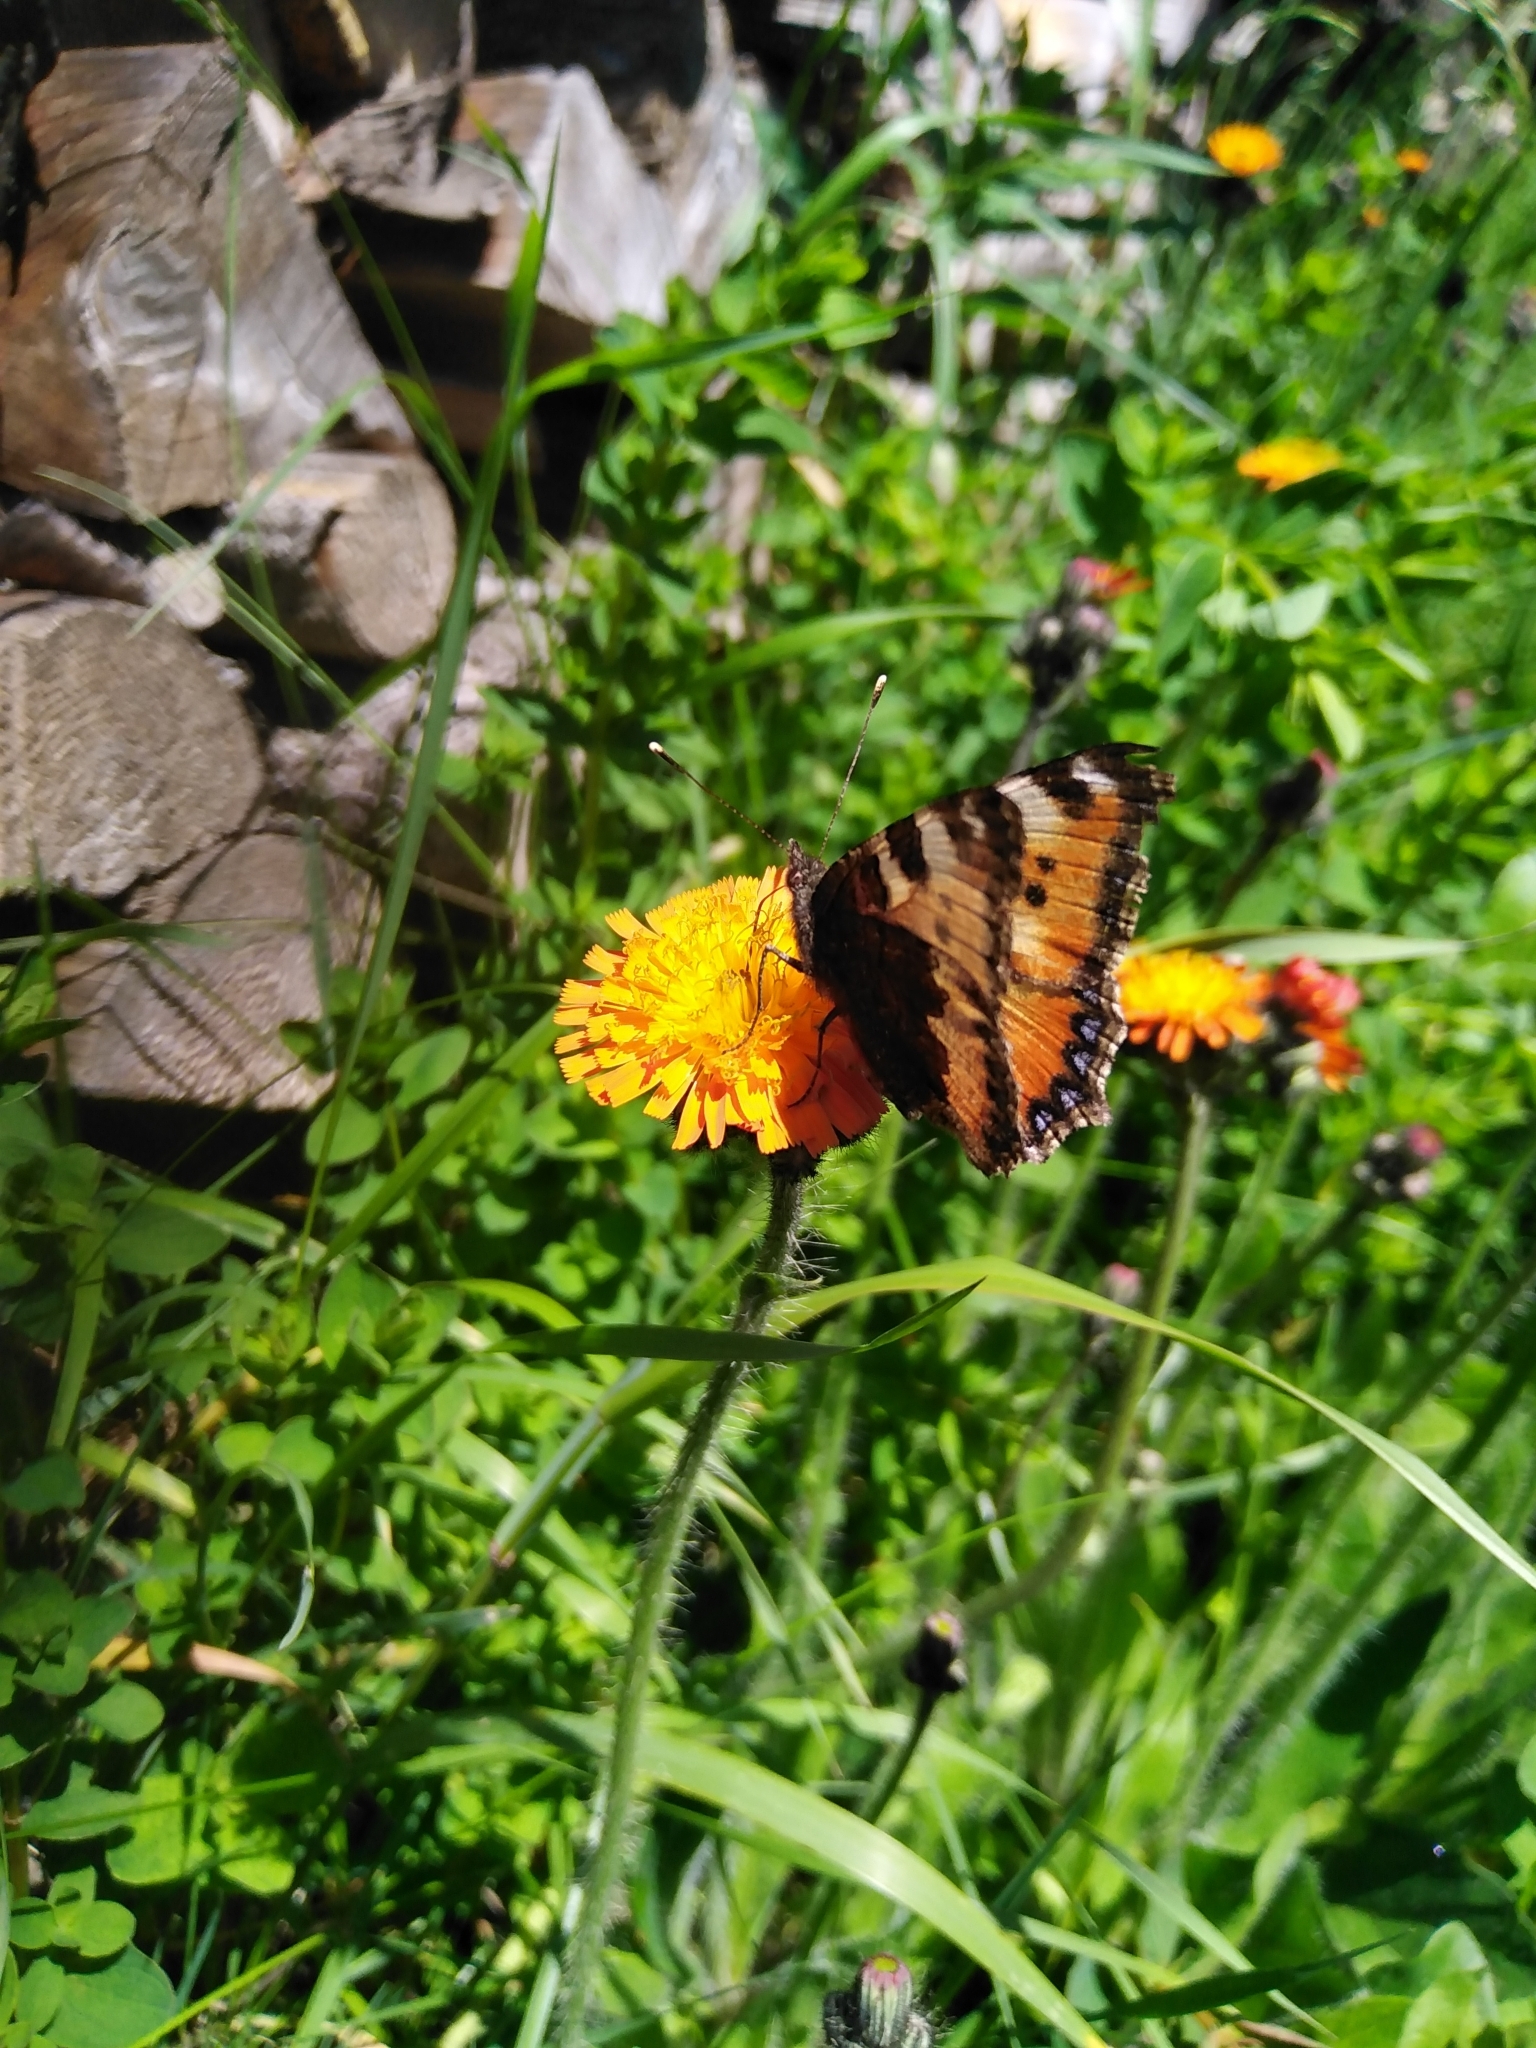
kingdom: Animalia
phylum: Arthropoda
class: Insecta
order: Lepidoptera
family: Nymphalidae
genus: Aglais
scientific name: Aglais urticae
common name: Small tortoiseshell
